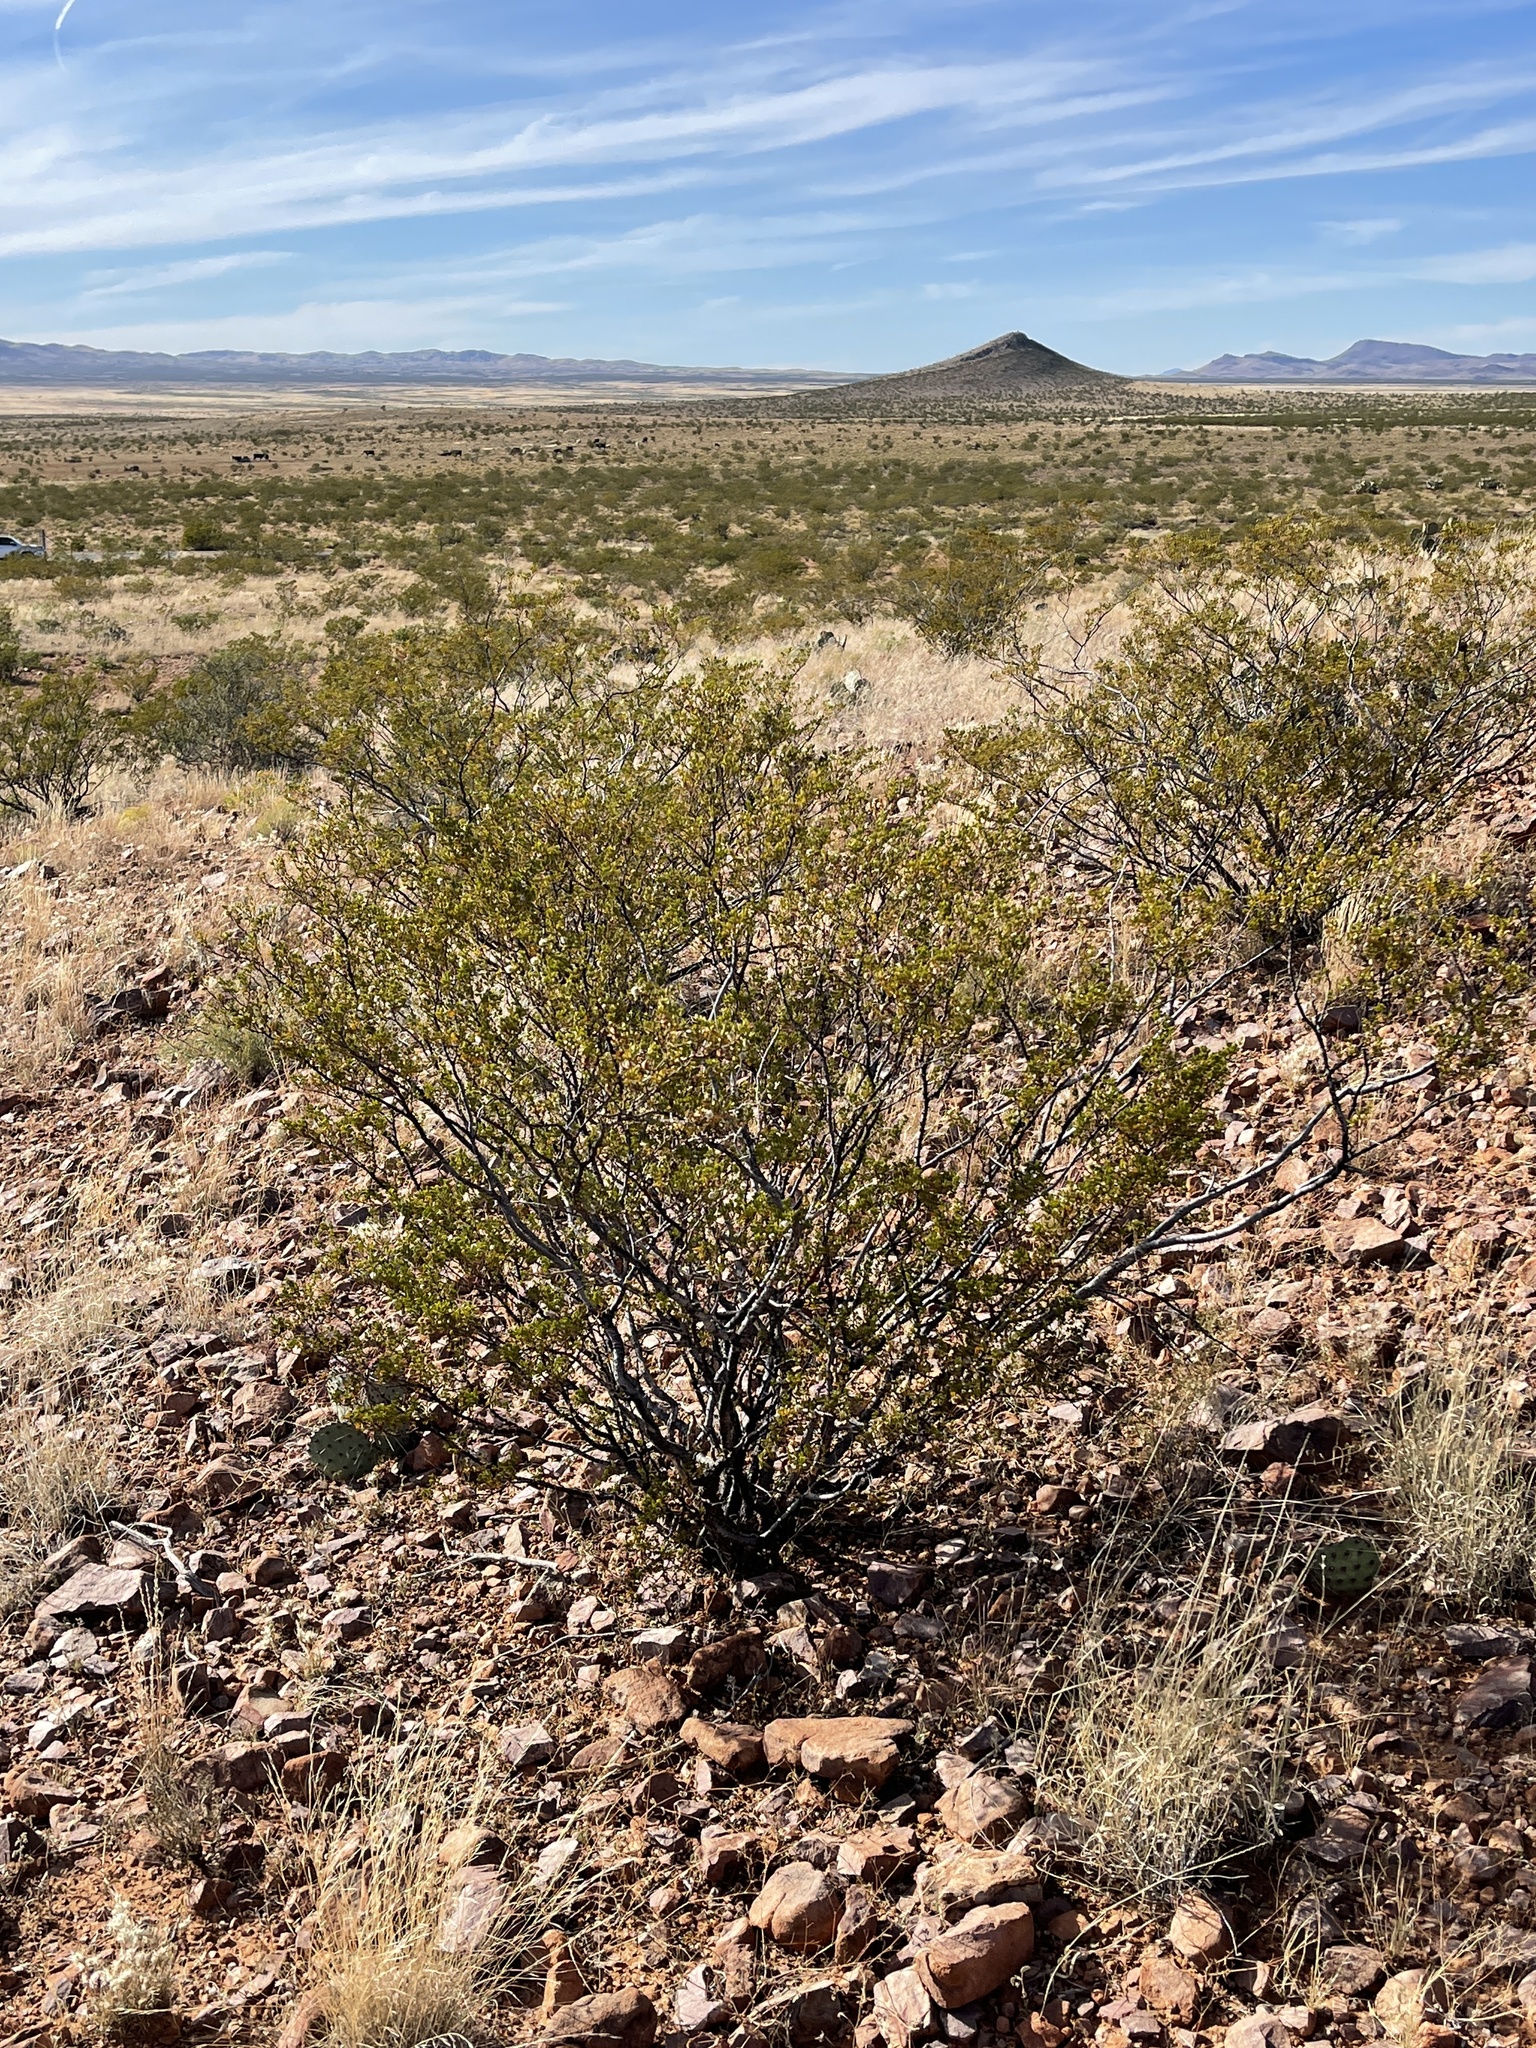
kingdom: Plantae
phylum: Tracheophyta
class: Magnoliopsida
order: Zygophyllales
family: Zygophyllaceae
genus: Larrea
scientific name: Larrea tridentata
